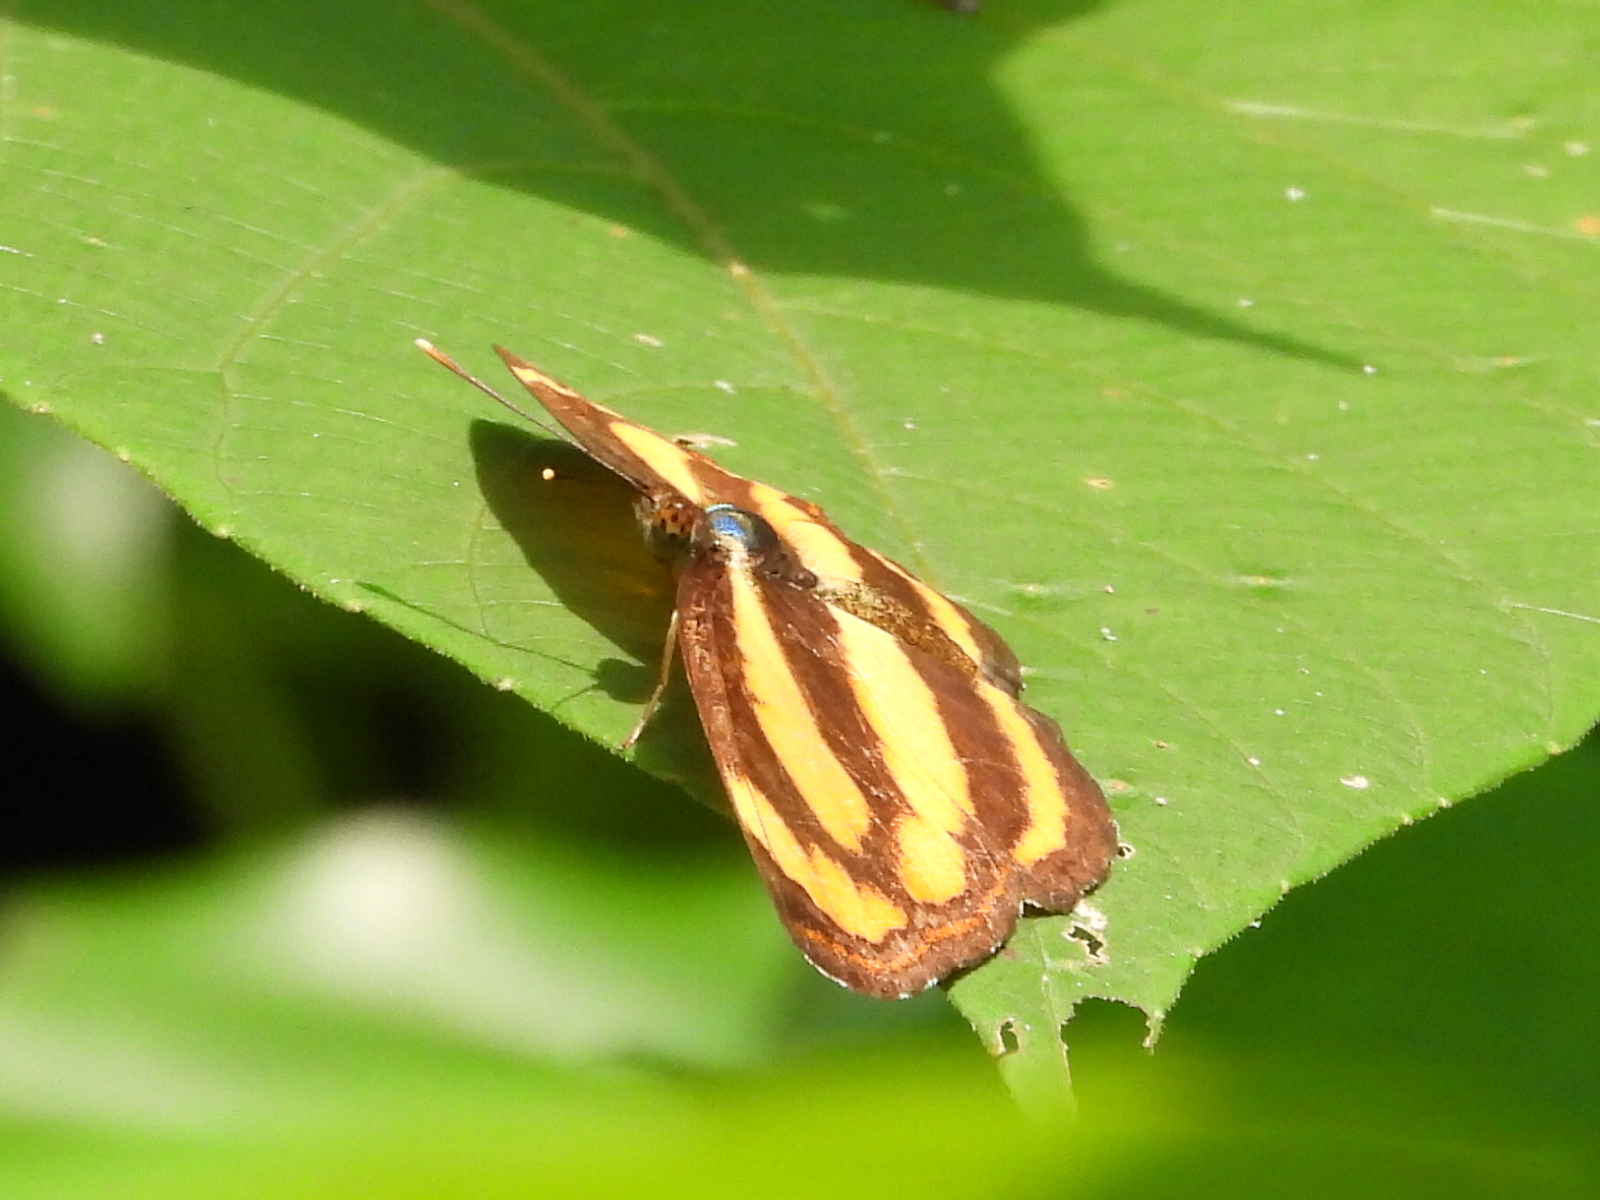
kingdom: Animalia
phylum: Arthropoda
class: Insecta
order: Lepidoptera
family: Nymphalidae
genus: Pantoporia
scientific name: Pantoporia hordonia
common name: Common lascar
